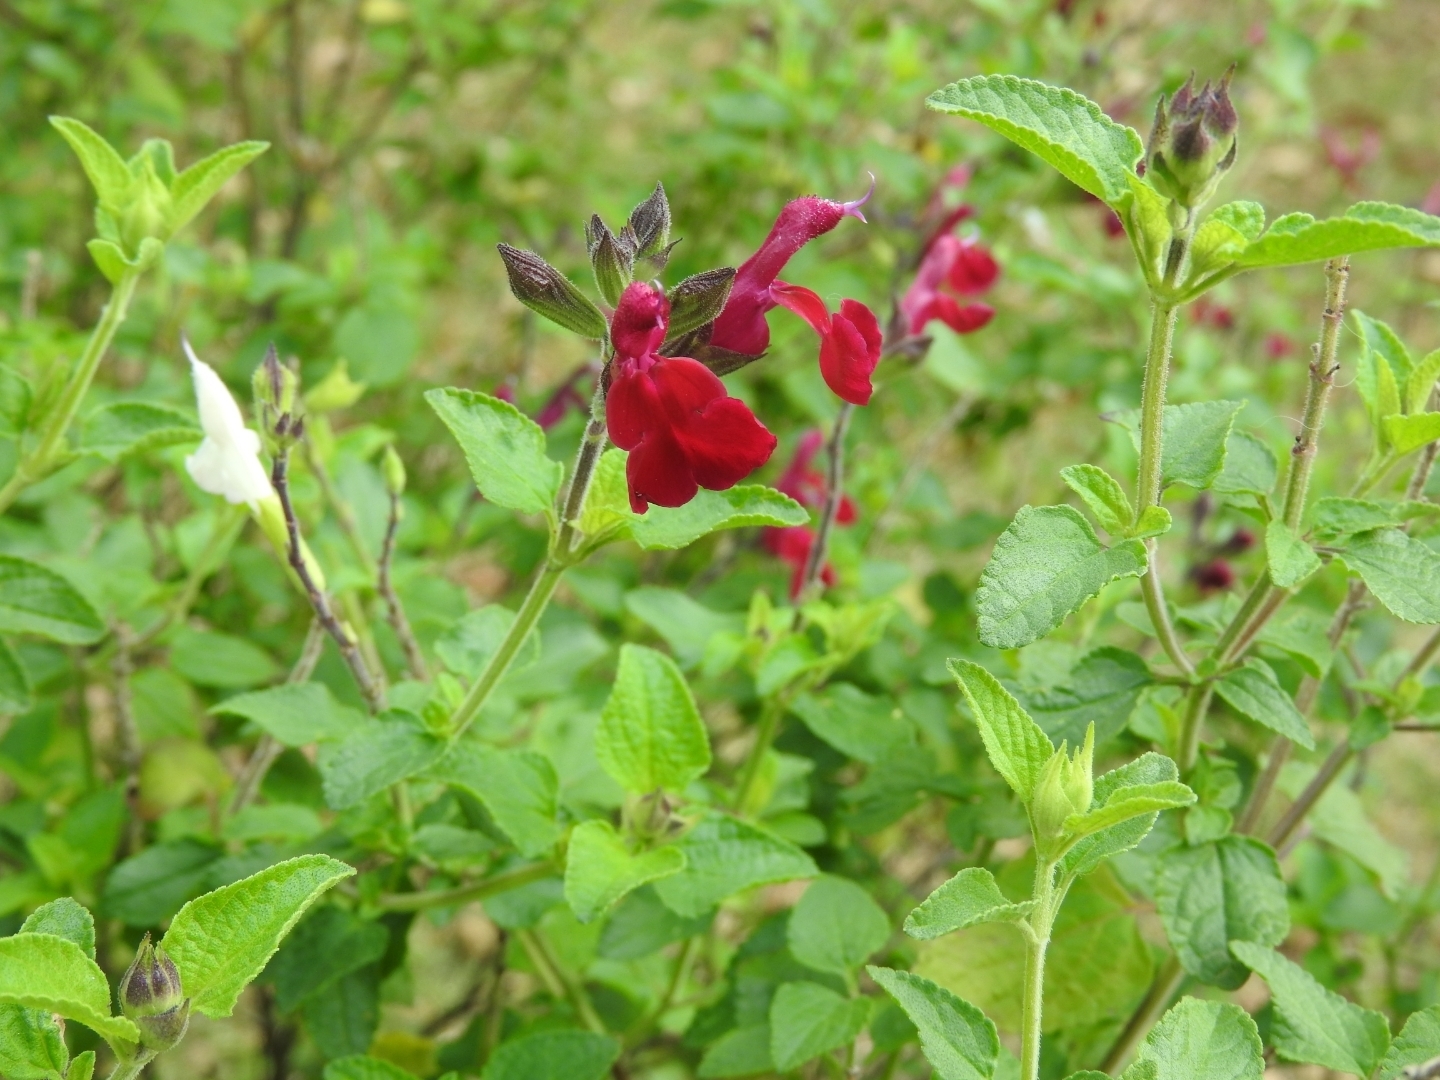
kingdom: Plantae
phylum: Tracheophyta
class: Magnoliopsida
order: Lamiales
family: Lamiaceae
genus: Salvia
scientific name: Salvia microphylla
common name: Baby sage
